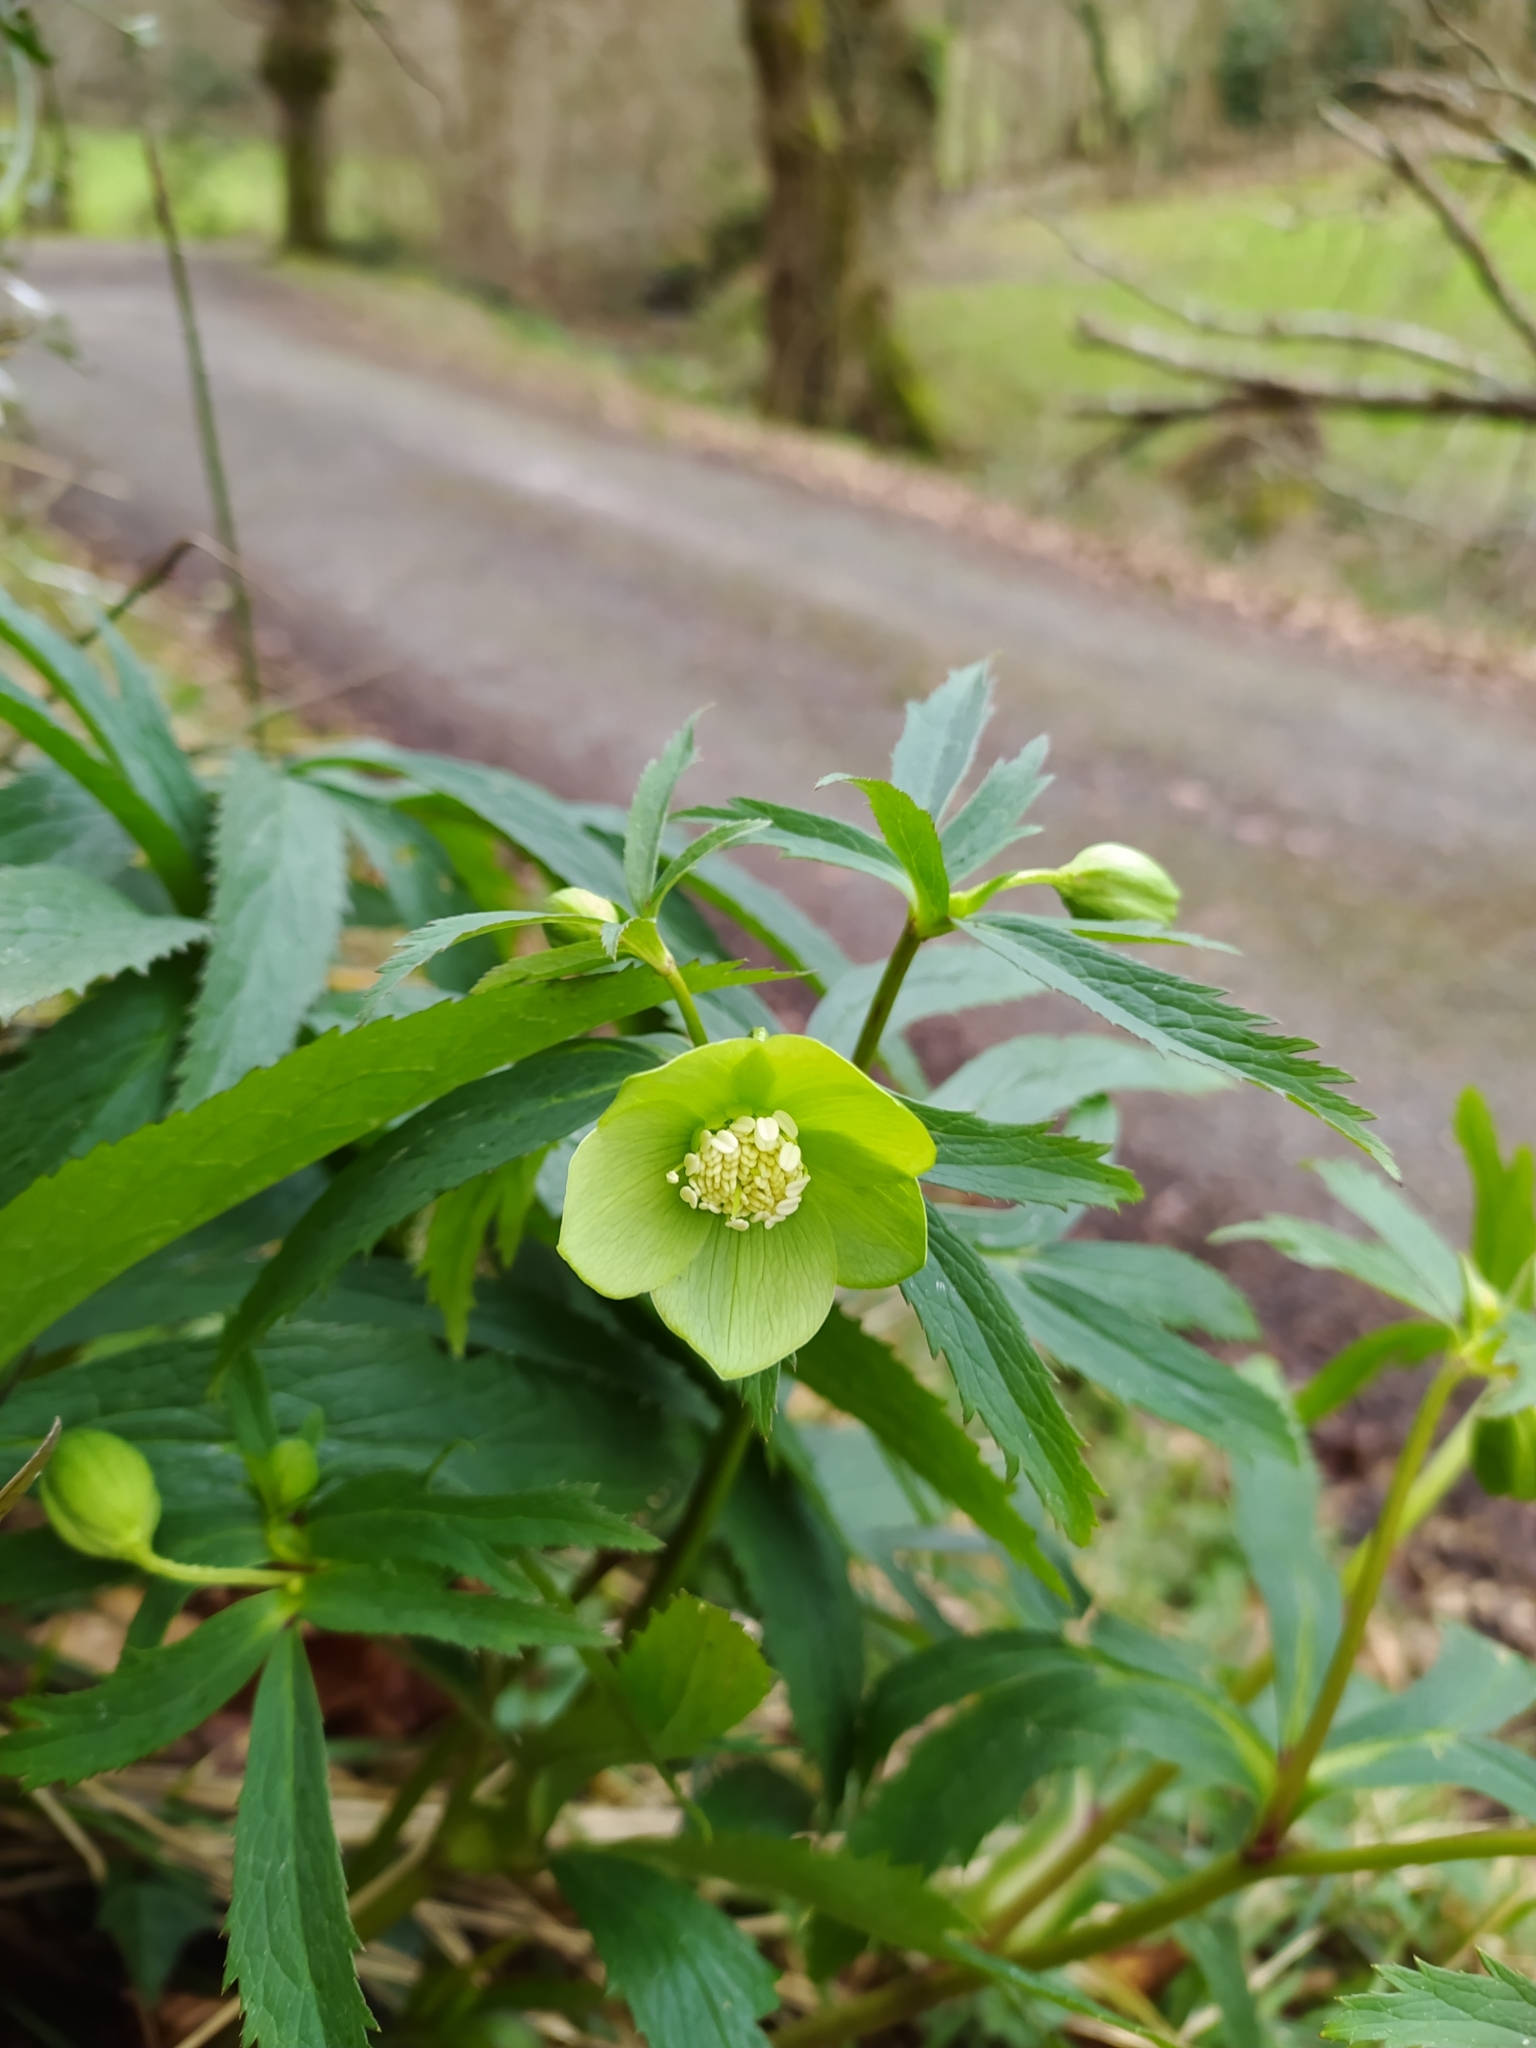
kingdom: Plantae
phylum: Tracheophyta
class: Magnoliopsida
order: Ranunculales
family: Ranunculaceae
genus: Helleborus
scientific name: Helleborus viridis
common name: Green hellebore
